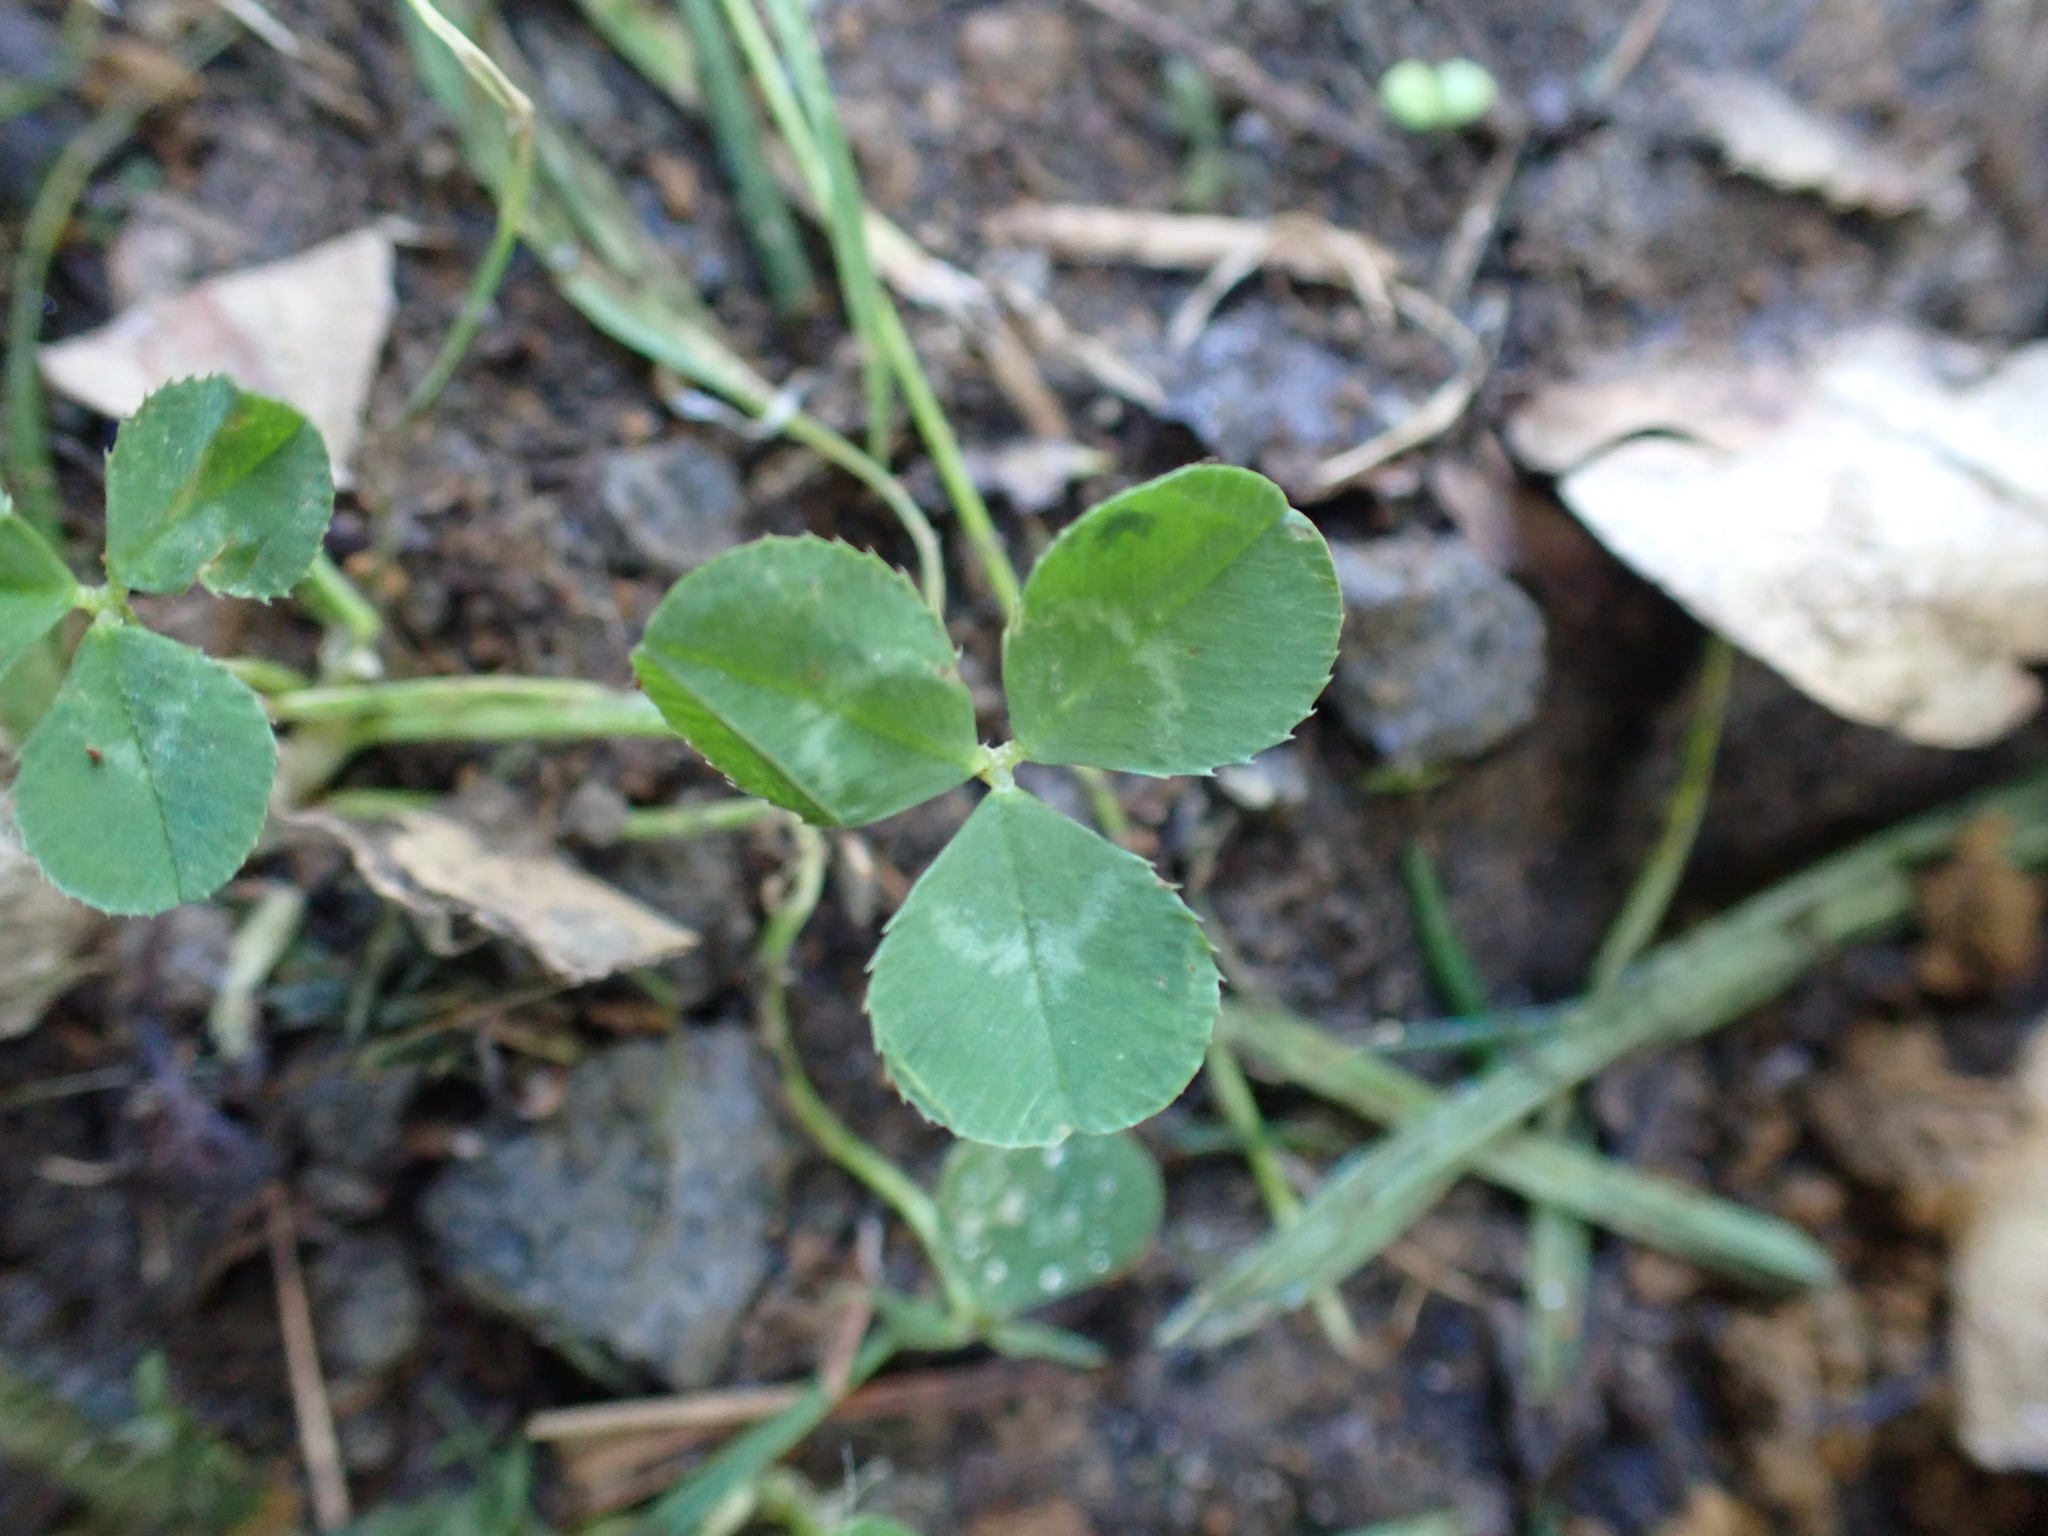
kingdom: Plantae
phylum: Tracheophyta
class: Magnoliopsida
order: Fabales
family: Fabaceae
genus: Trifolium
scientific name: Trifolium repens
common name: White clover
